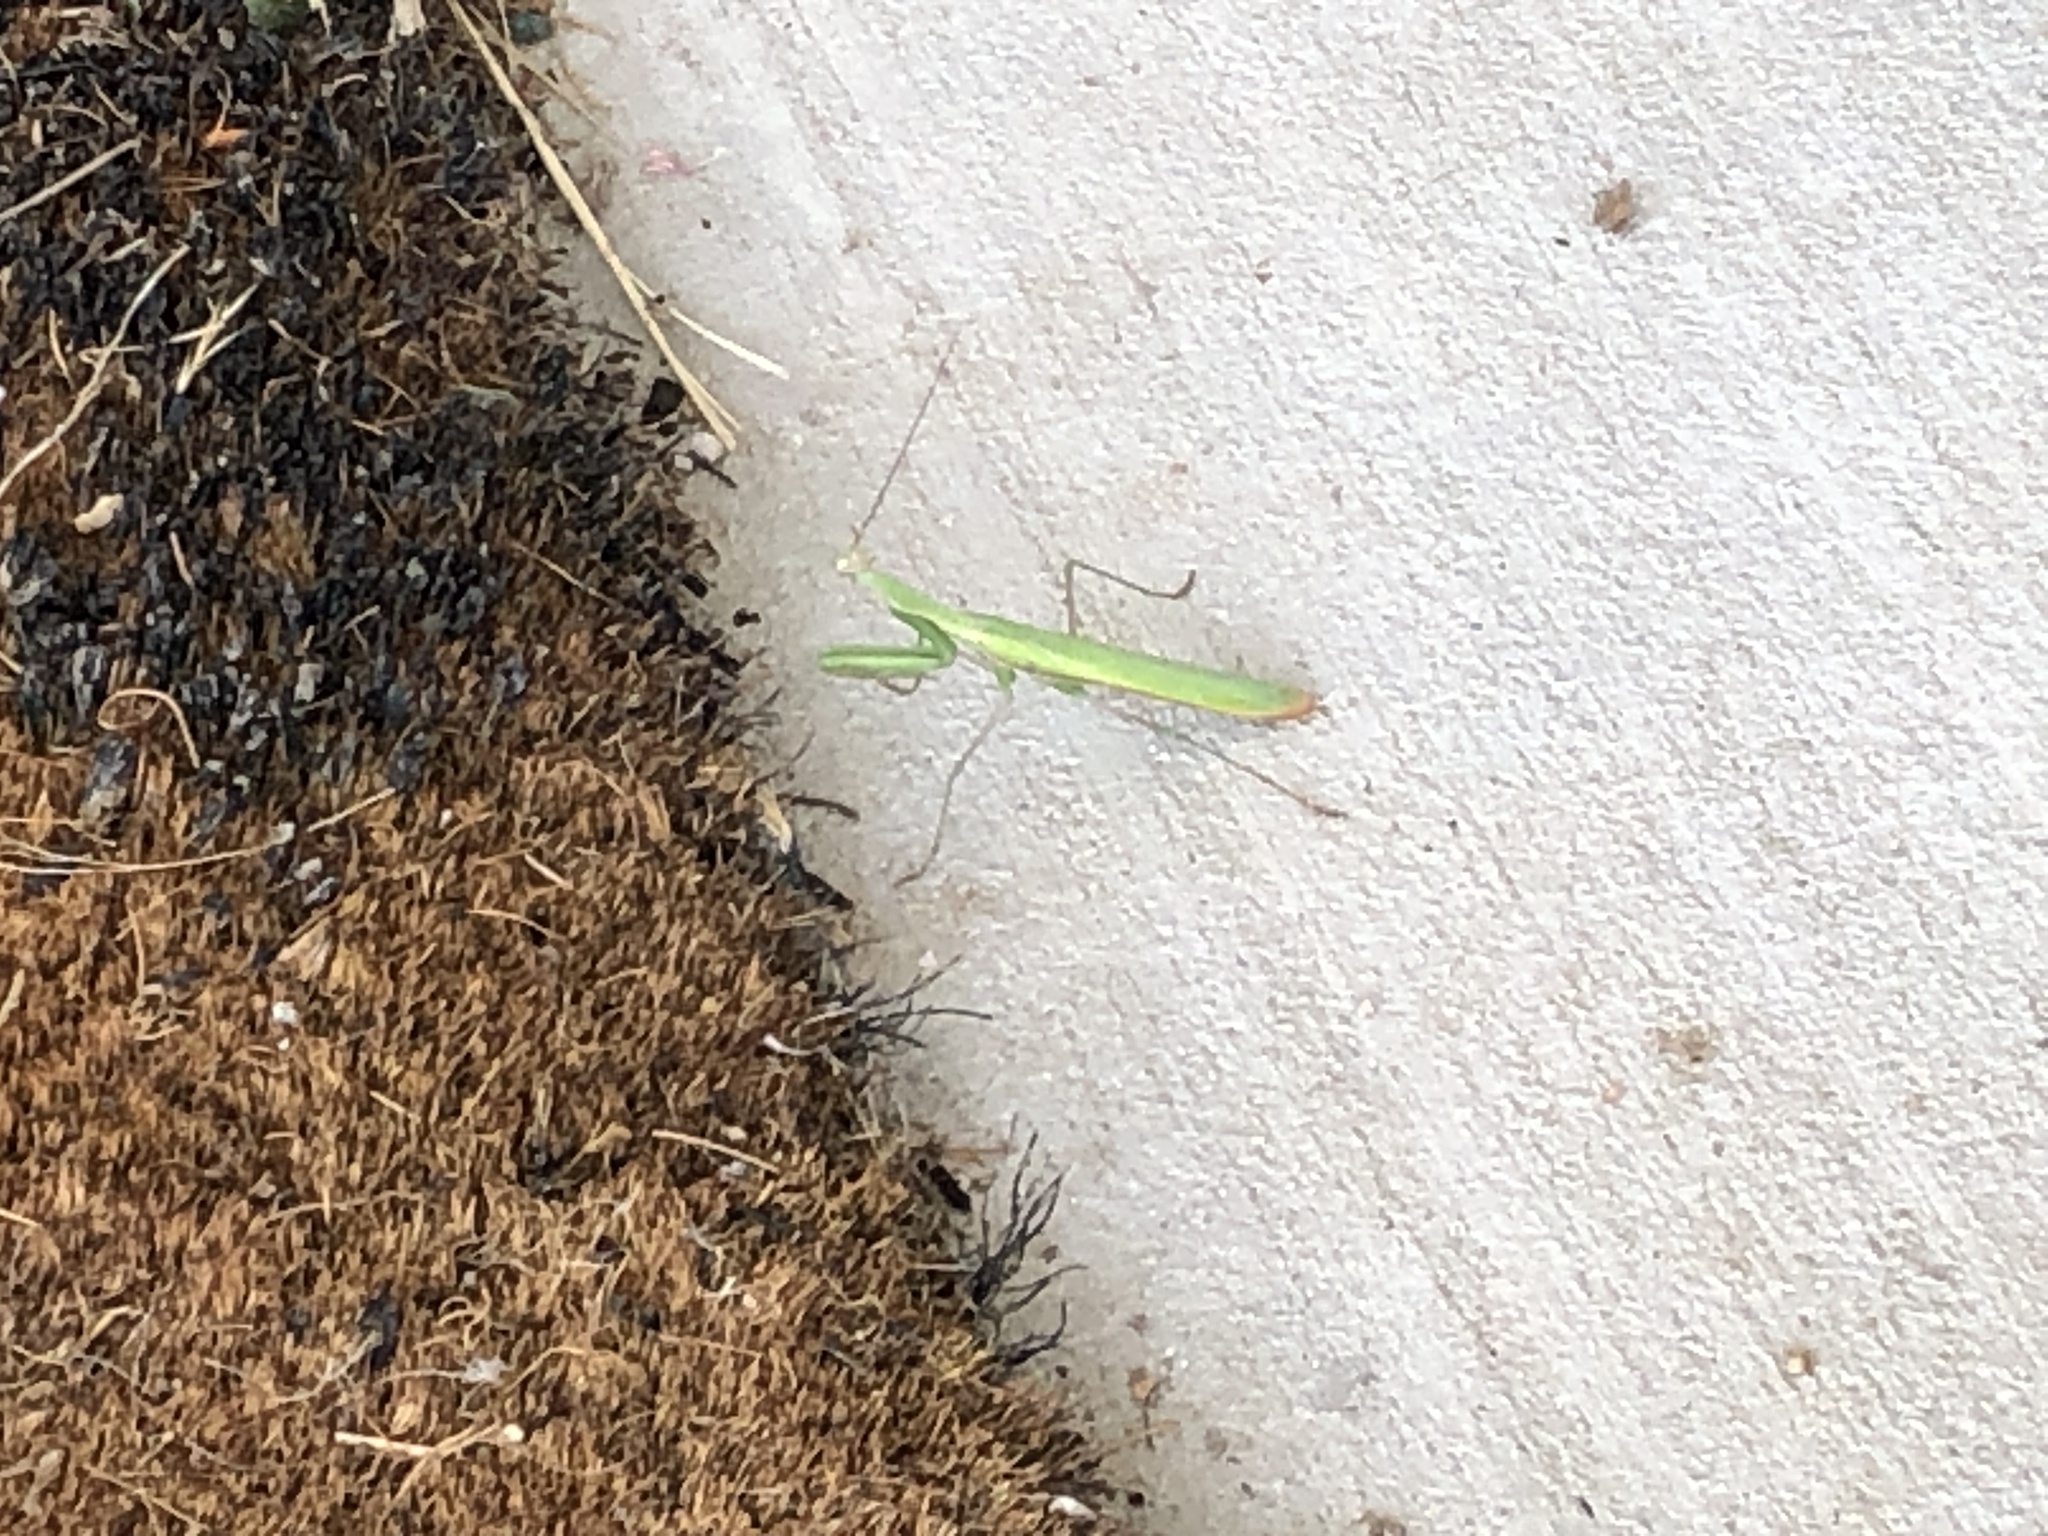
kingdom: Animalia
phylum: Arthropoda
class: Insecta
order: Mantodea
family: Mantidae
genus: Mantis
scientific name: Mantis religiosa
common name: Praying mantis
